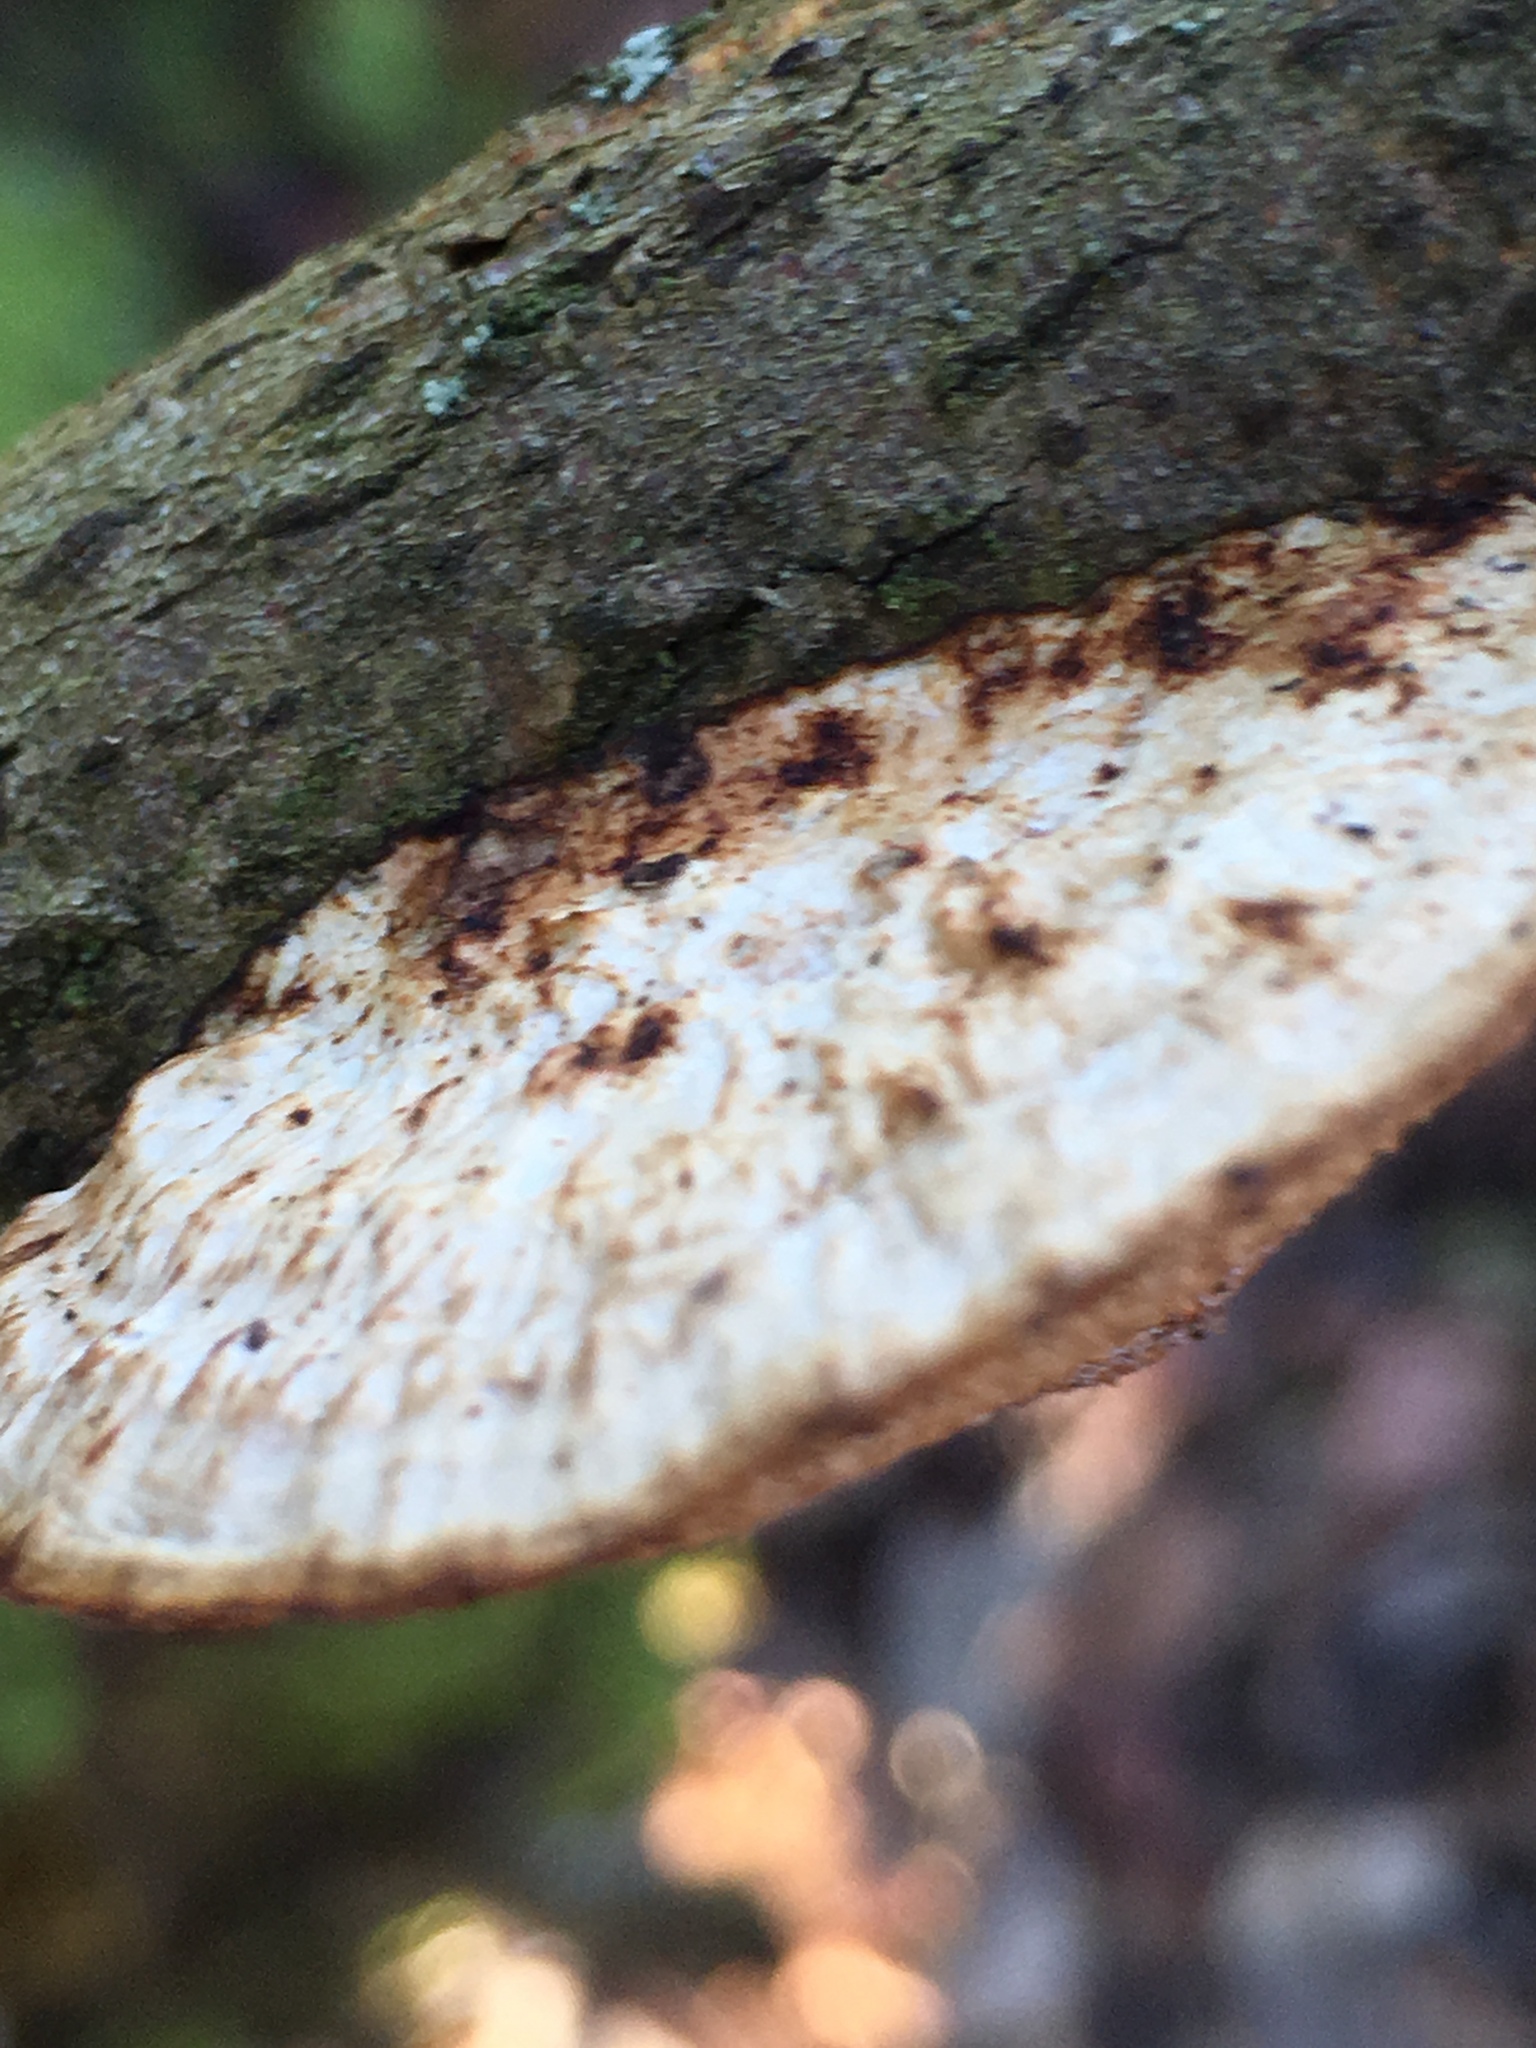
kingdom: Fungi
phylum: Basidiomycota
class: Agaricomycetes
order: Polyporales
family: Polyporaceae
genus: Daedaleopsis
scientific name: Daedaleopsis confragosa
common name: Blushing bracket
